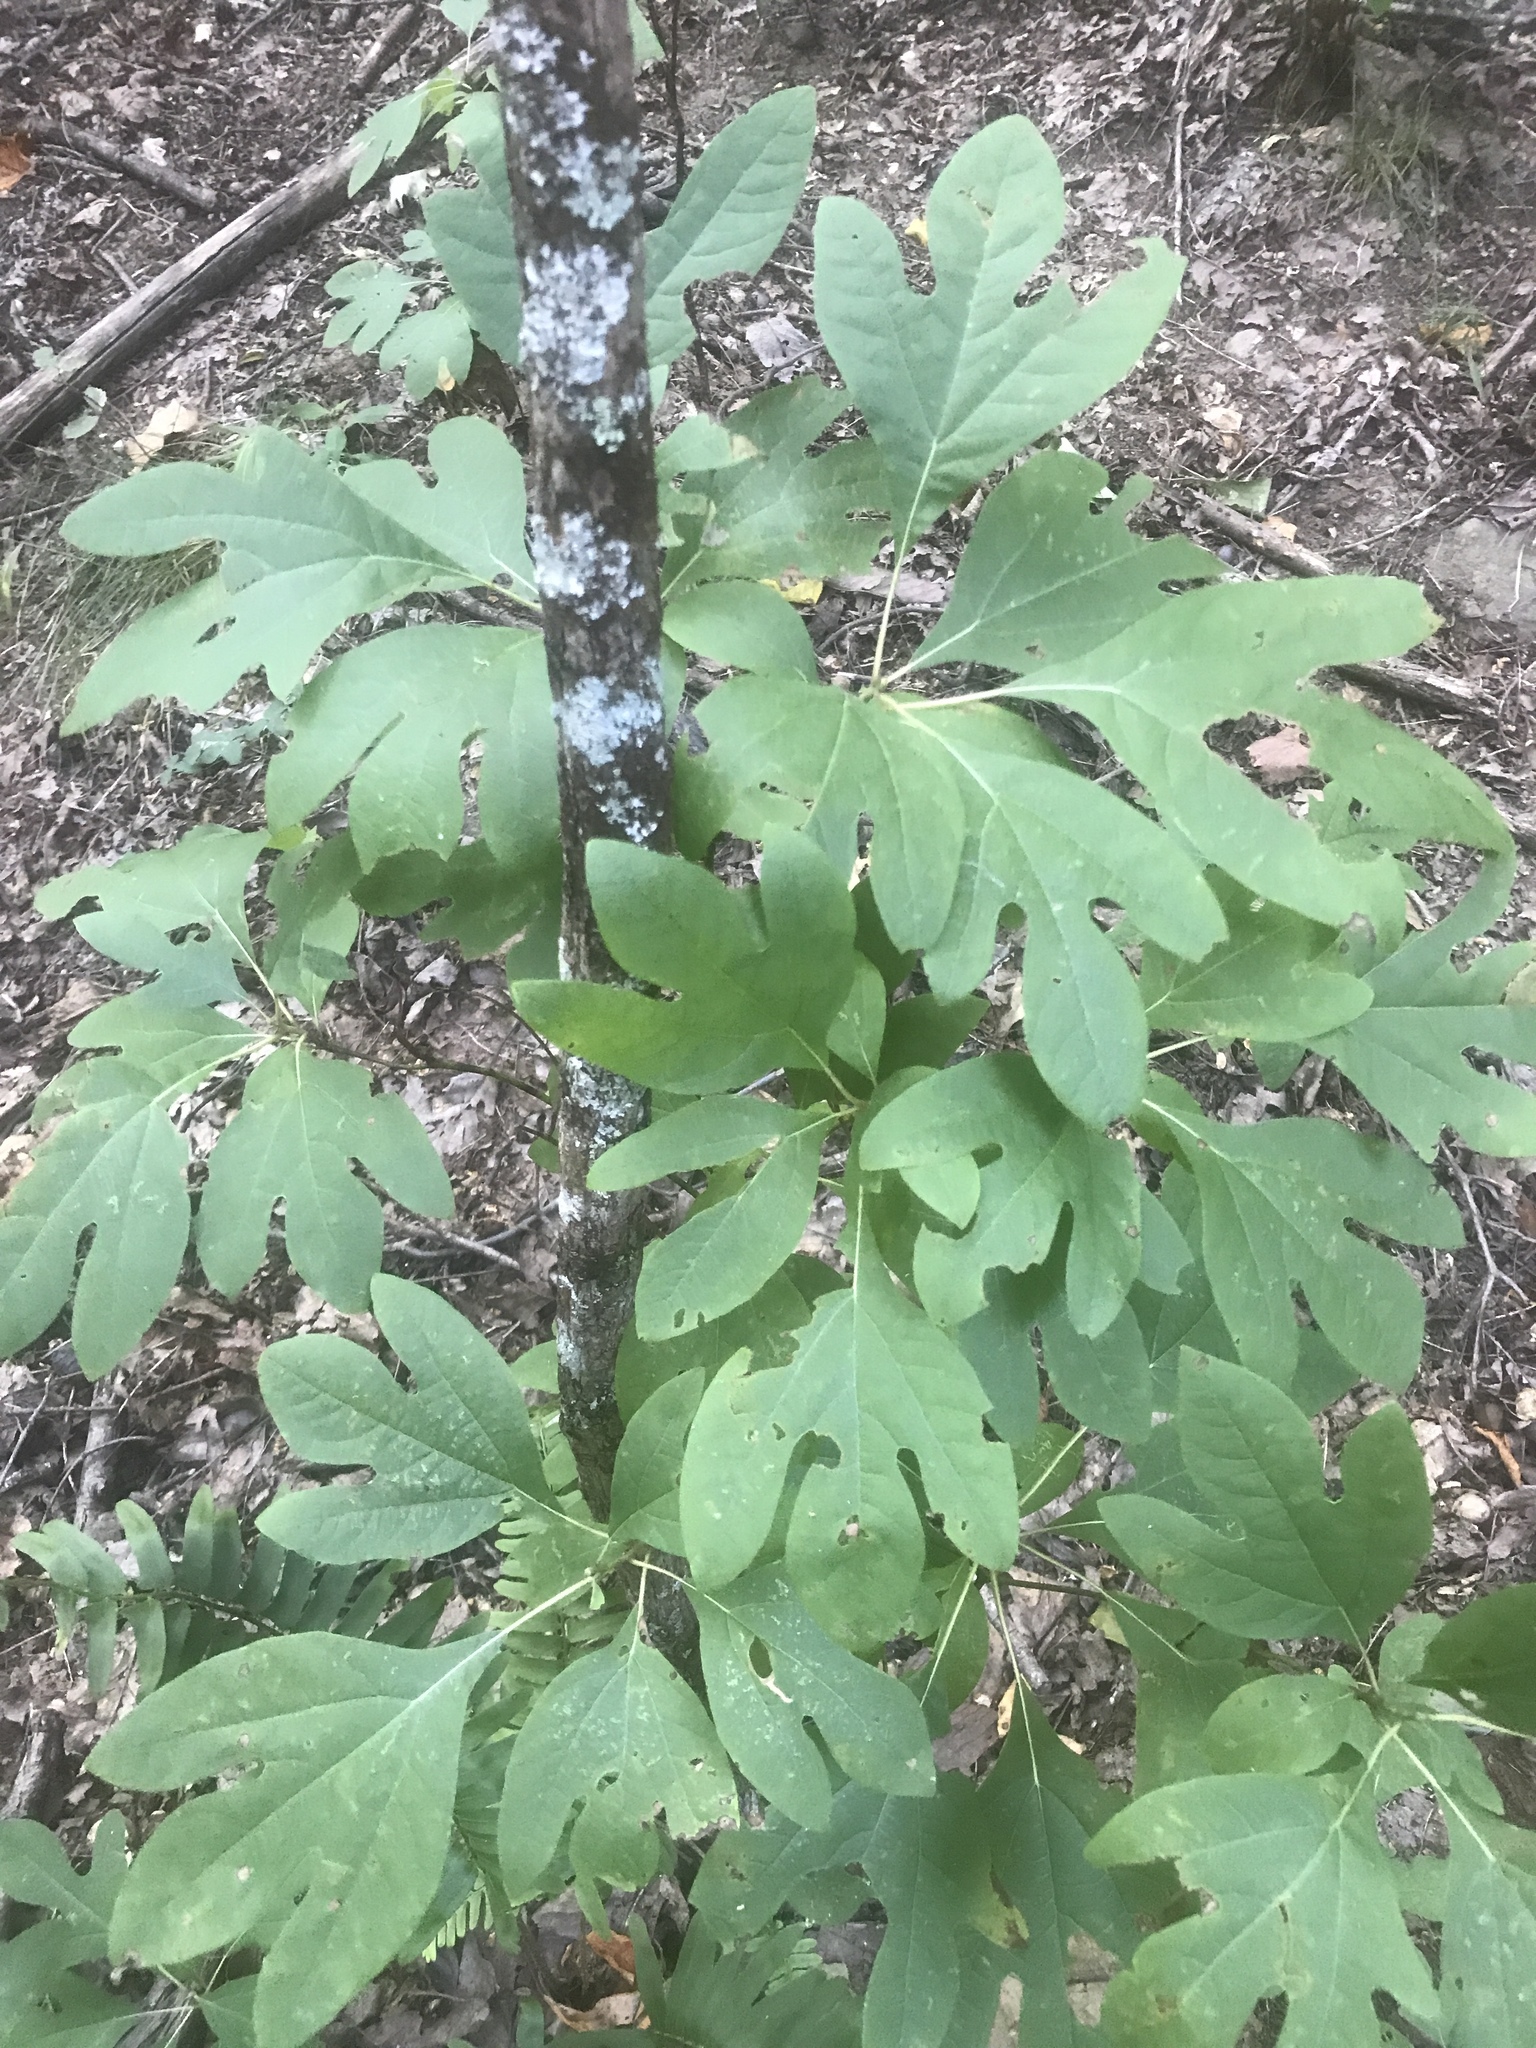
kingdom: Plantae
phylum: Tracheophyta
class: Magnoliopsida
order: Laurales
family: Lauraceae
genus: Sassafras
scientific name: Sassafras albidum
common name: Sassafras
